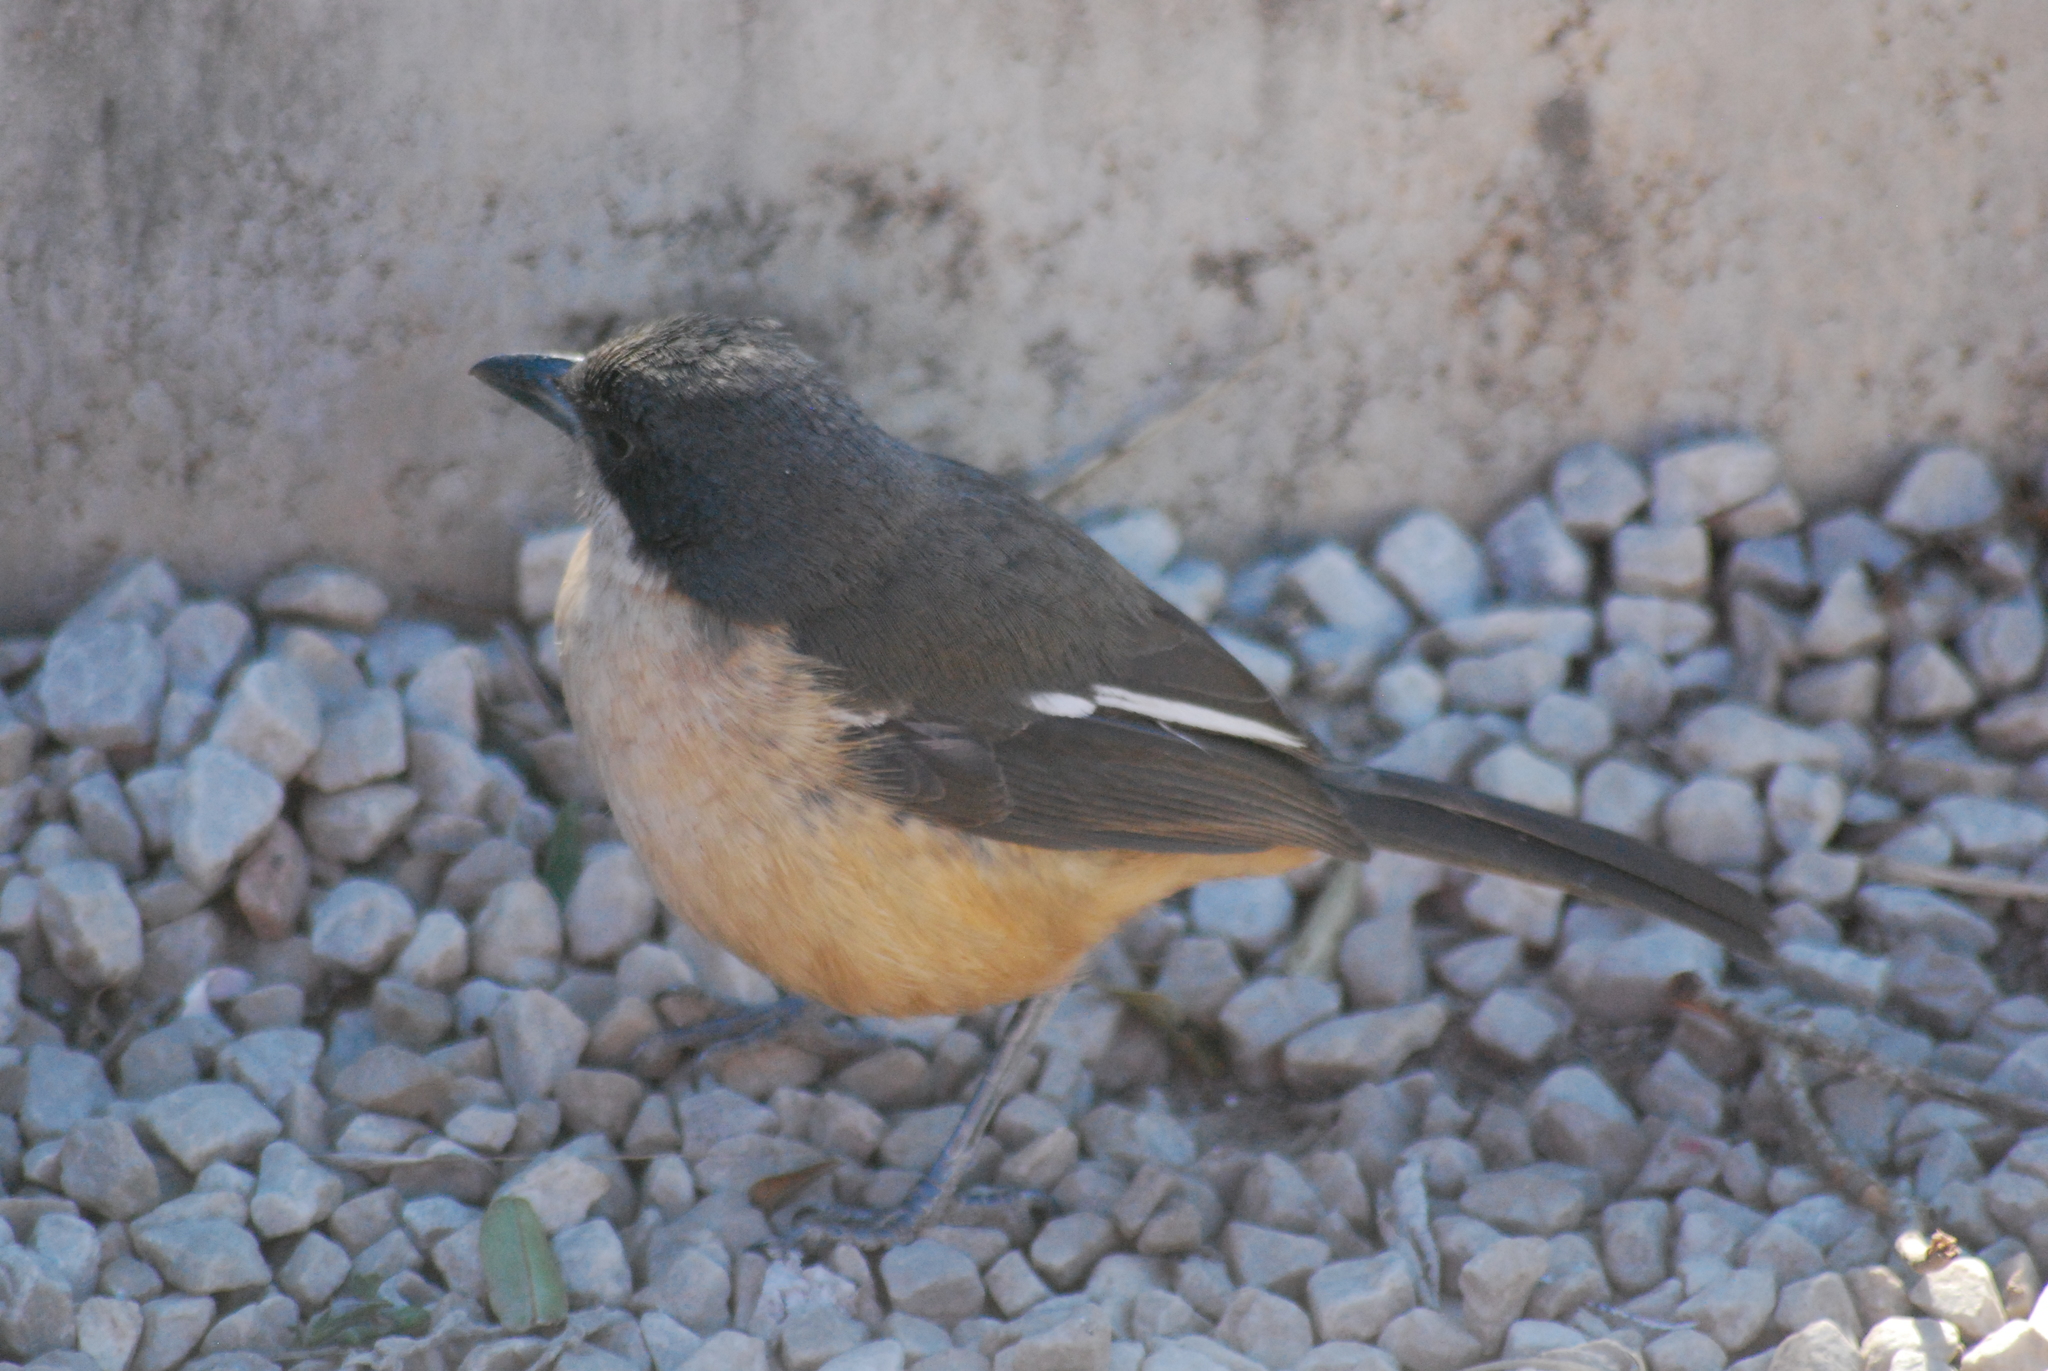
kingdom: Animalia
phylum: Chordata
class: Aves
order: Passeriformes
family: Malaconotidae
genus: Laniarius
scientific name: Laniarius ferrugineus
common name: Southern boubou
